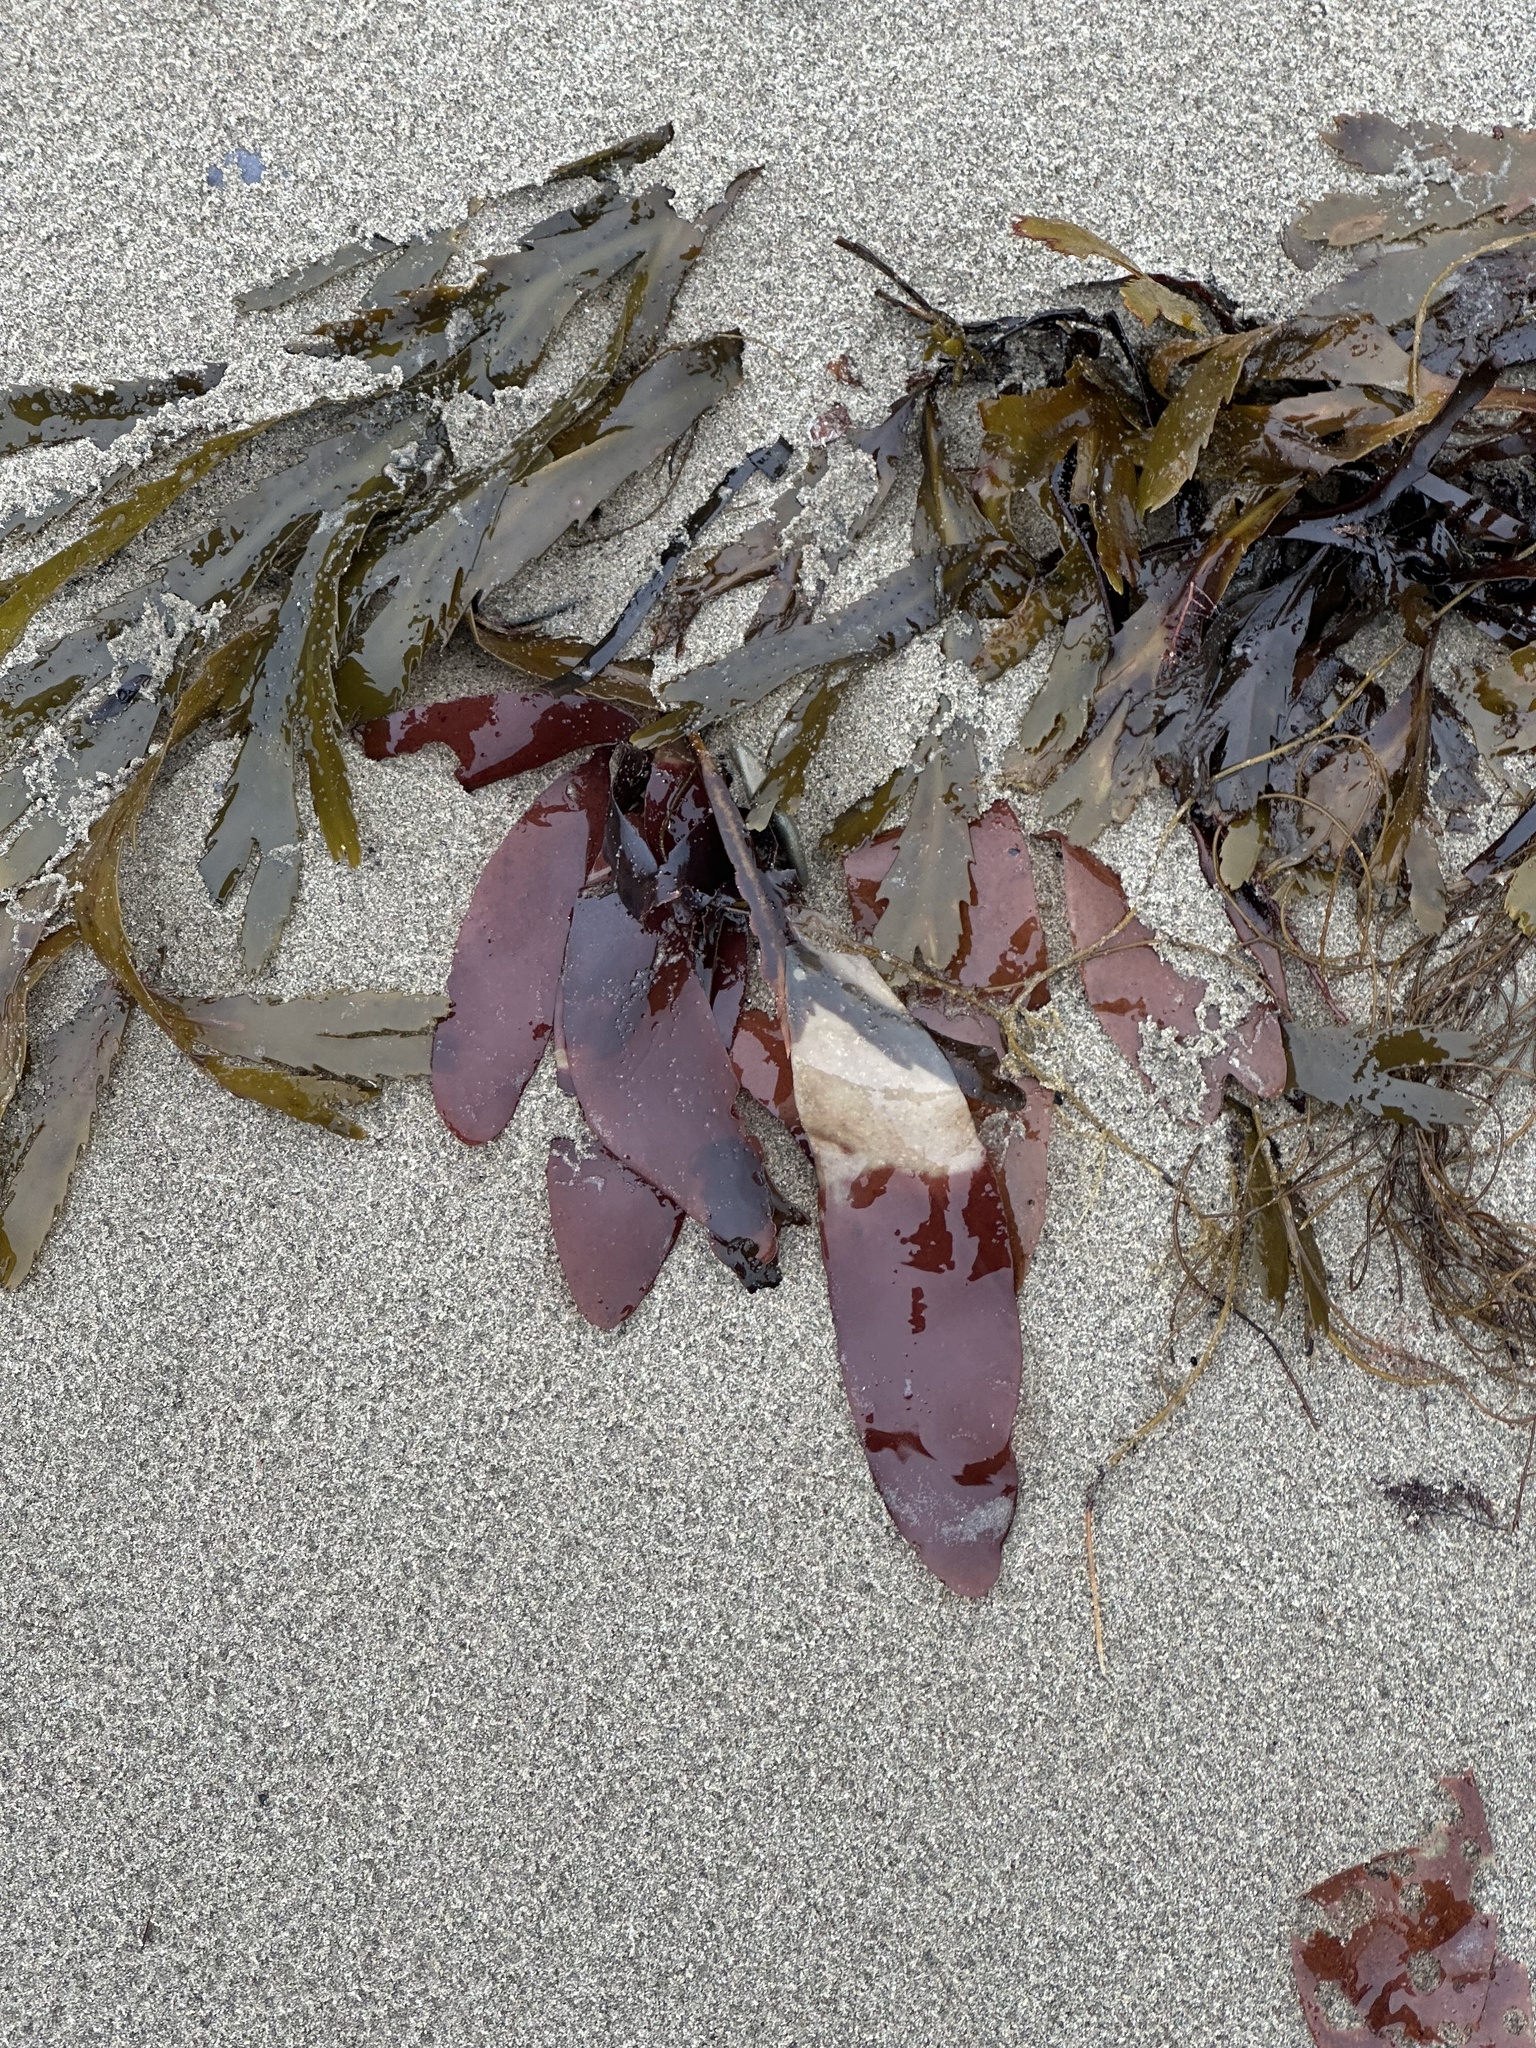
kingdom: Plantae
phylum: Rhodophyta
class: Florideophyceae
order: Palmariales
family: Palmariaceae
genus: Palmaria
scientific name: Palmaria palmata
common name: Dulse
